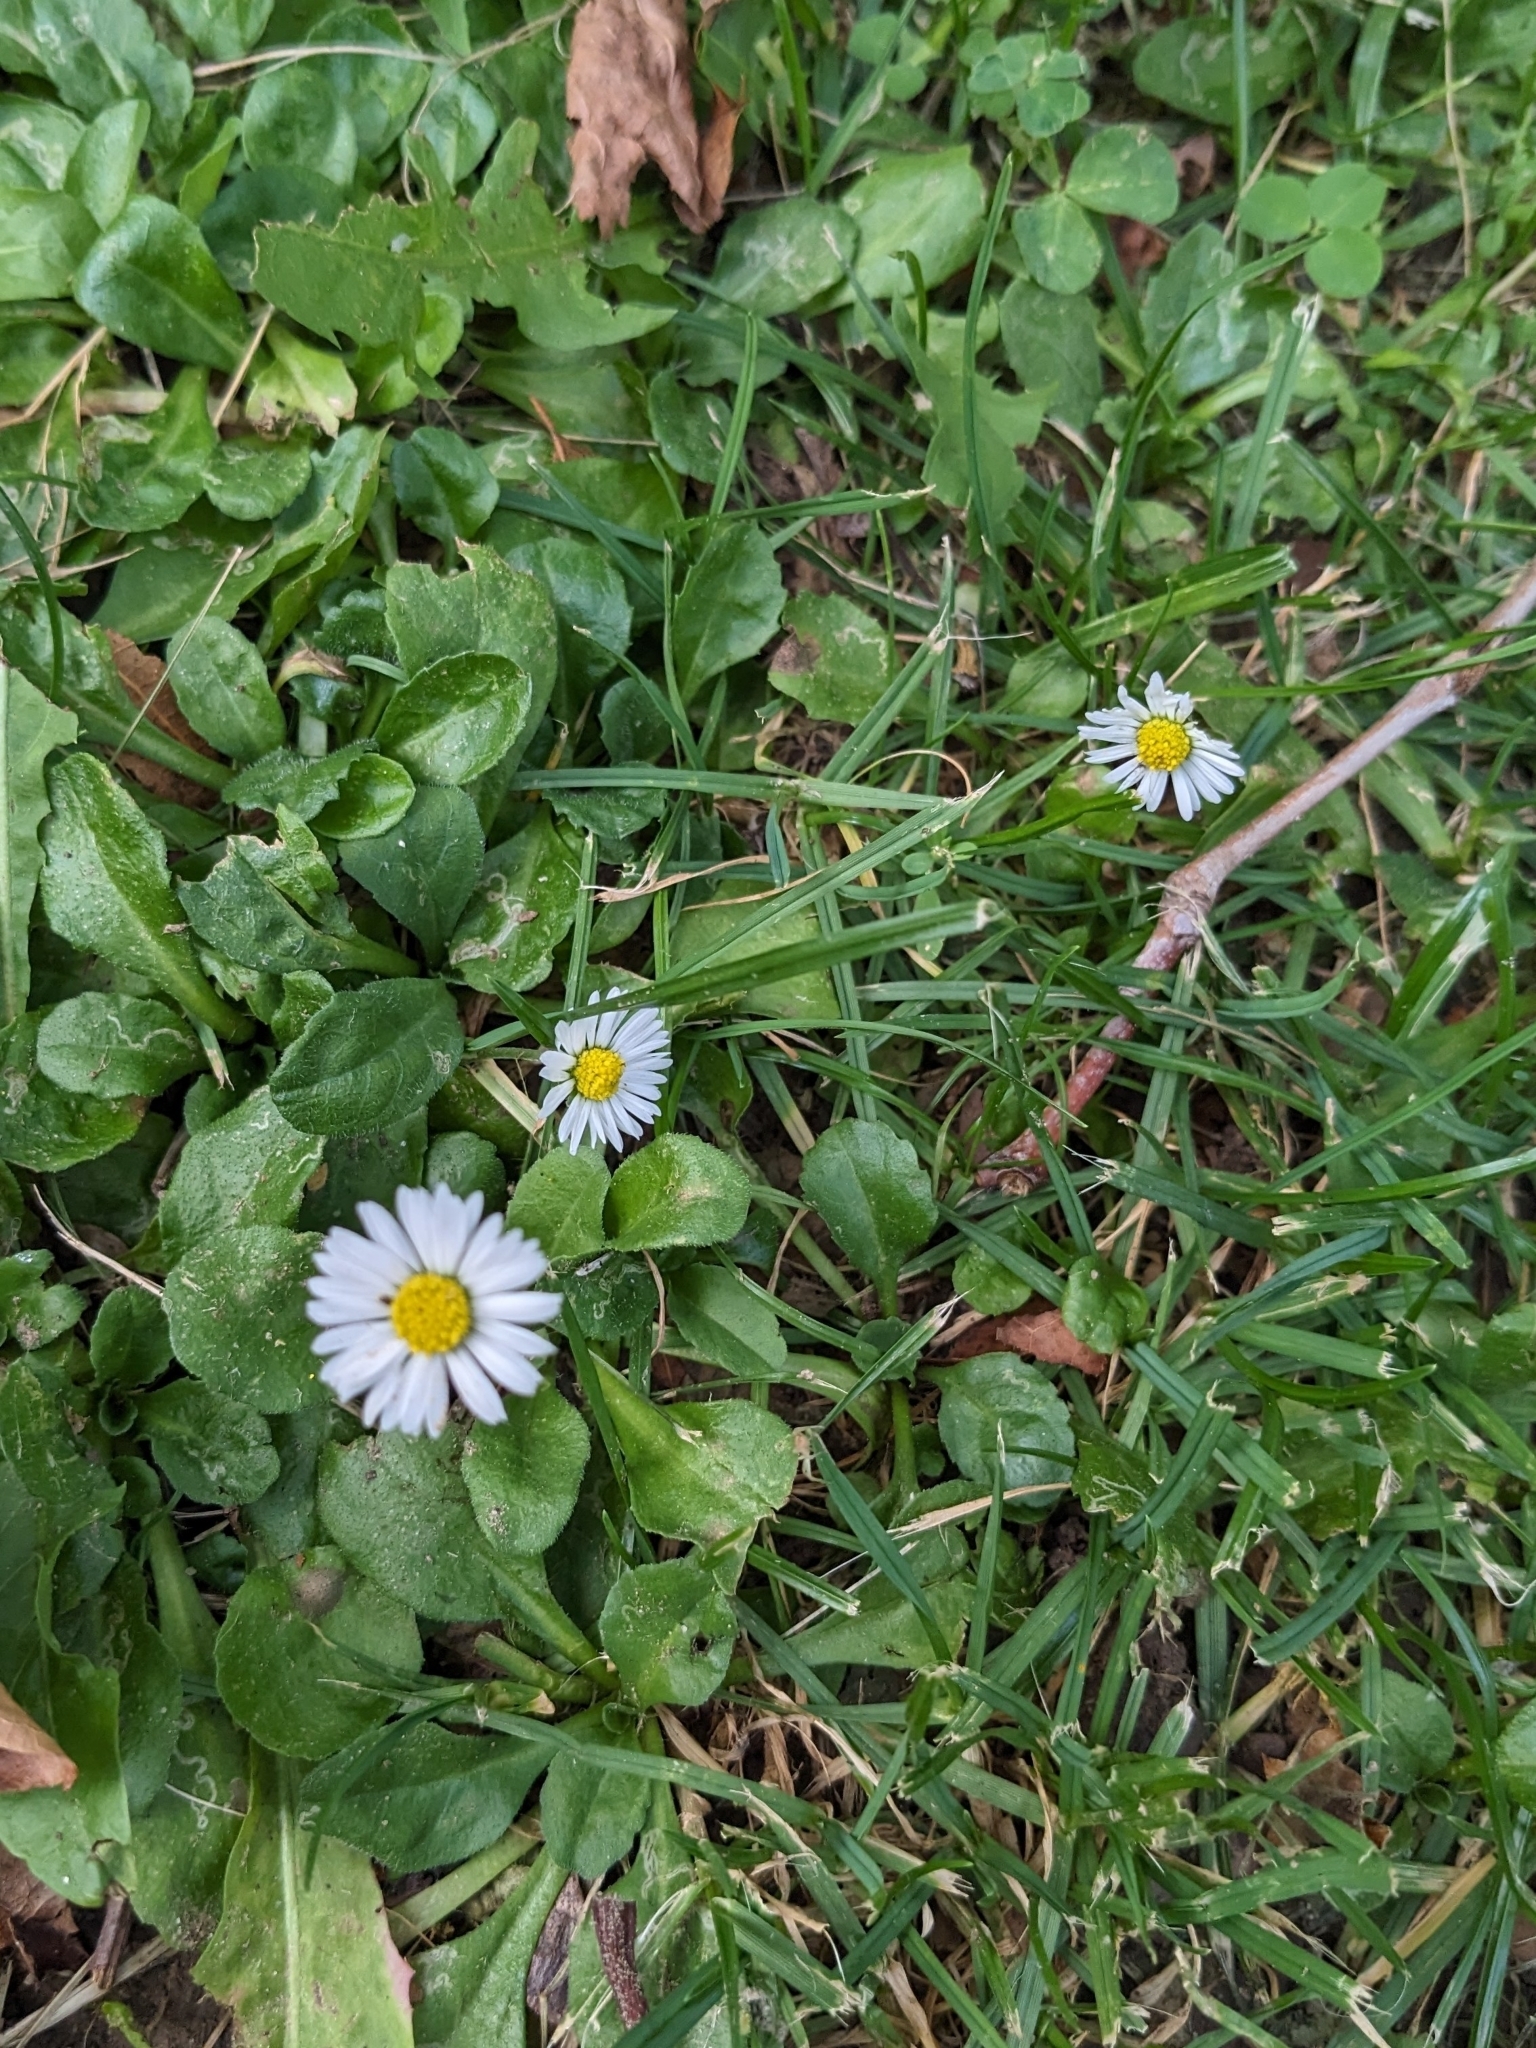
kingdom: Plantae
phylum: Tracheophyta
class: Magnoliopsida
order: Asterales
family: Asteraceae
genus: Bellis
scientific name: Bellis perennis
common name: Lawndaisy
